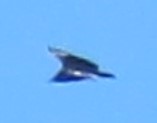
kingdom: Animalia
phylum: Chordata
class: Aves
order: Accipitriformes
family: Cathartidae
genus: Coragyps
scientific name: Coragyps atratus
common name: Black vulture
